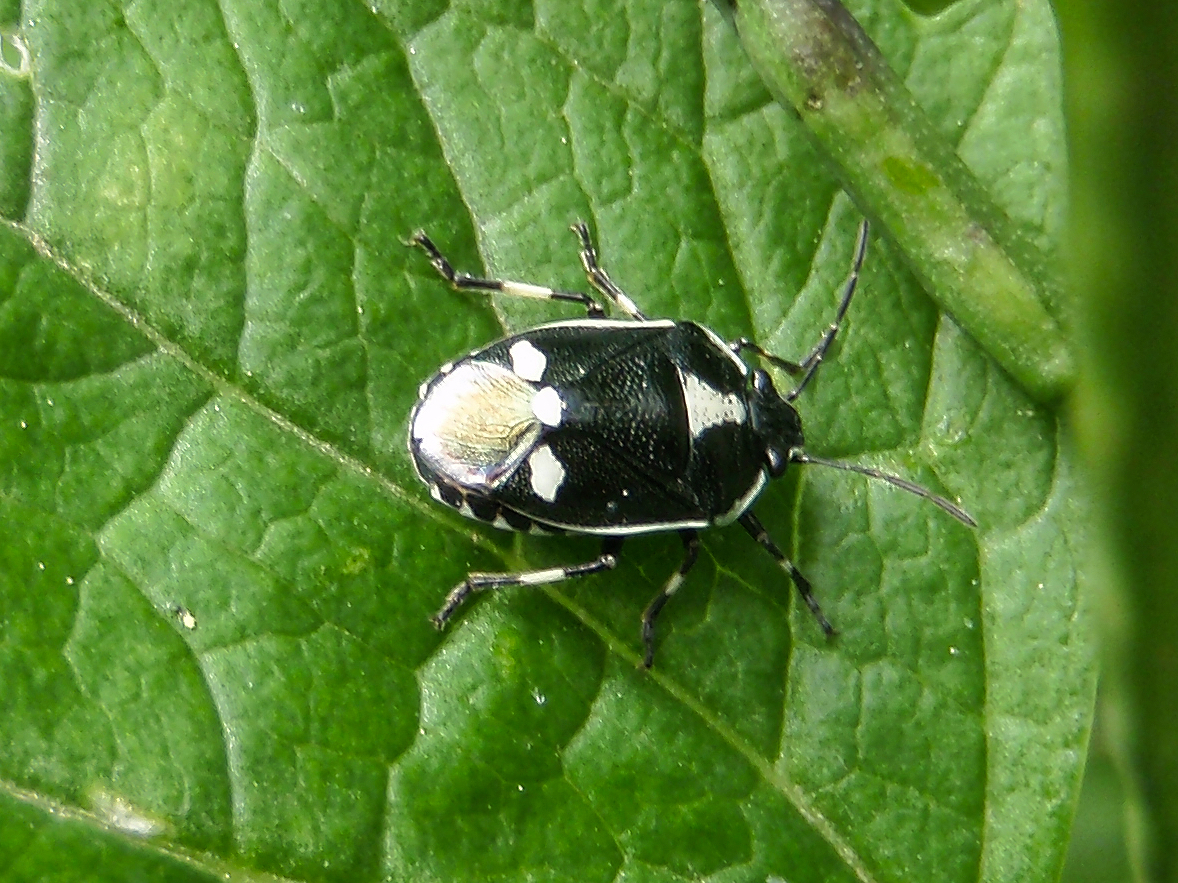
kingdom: Animalia
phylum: Arthropoda
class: Insecta
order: Hemiptera
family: Pentatomidae
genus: Eurydema
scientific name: Eurydema oleracea
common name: Cabbage bug
